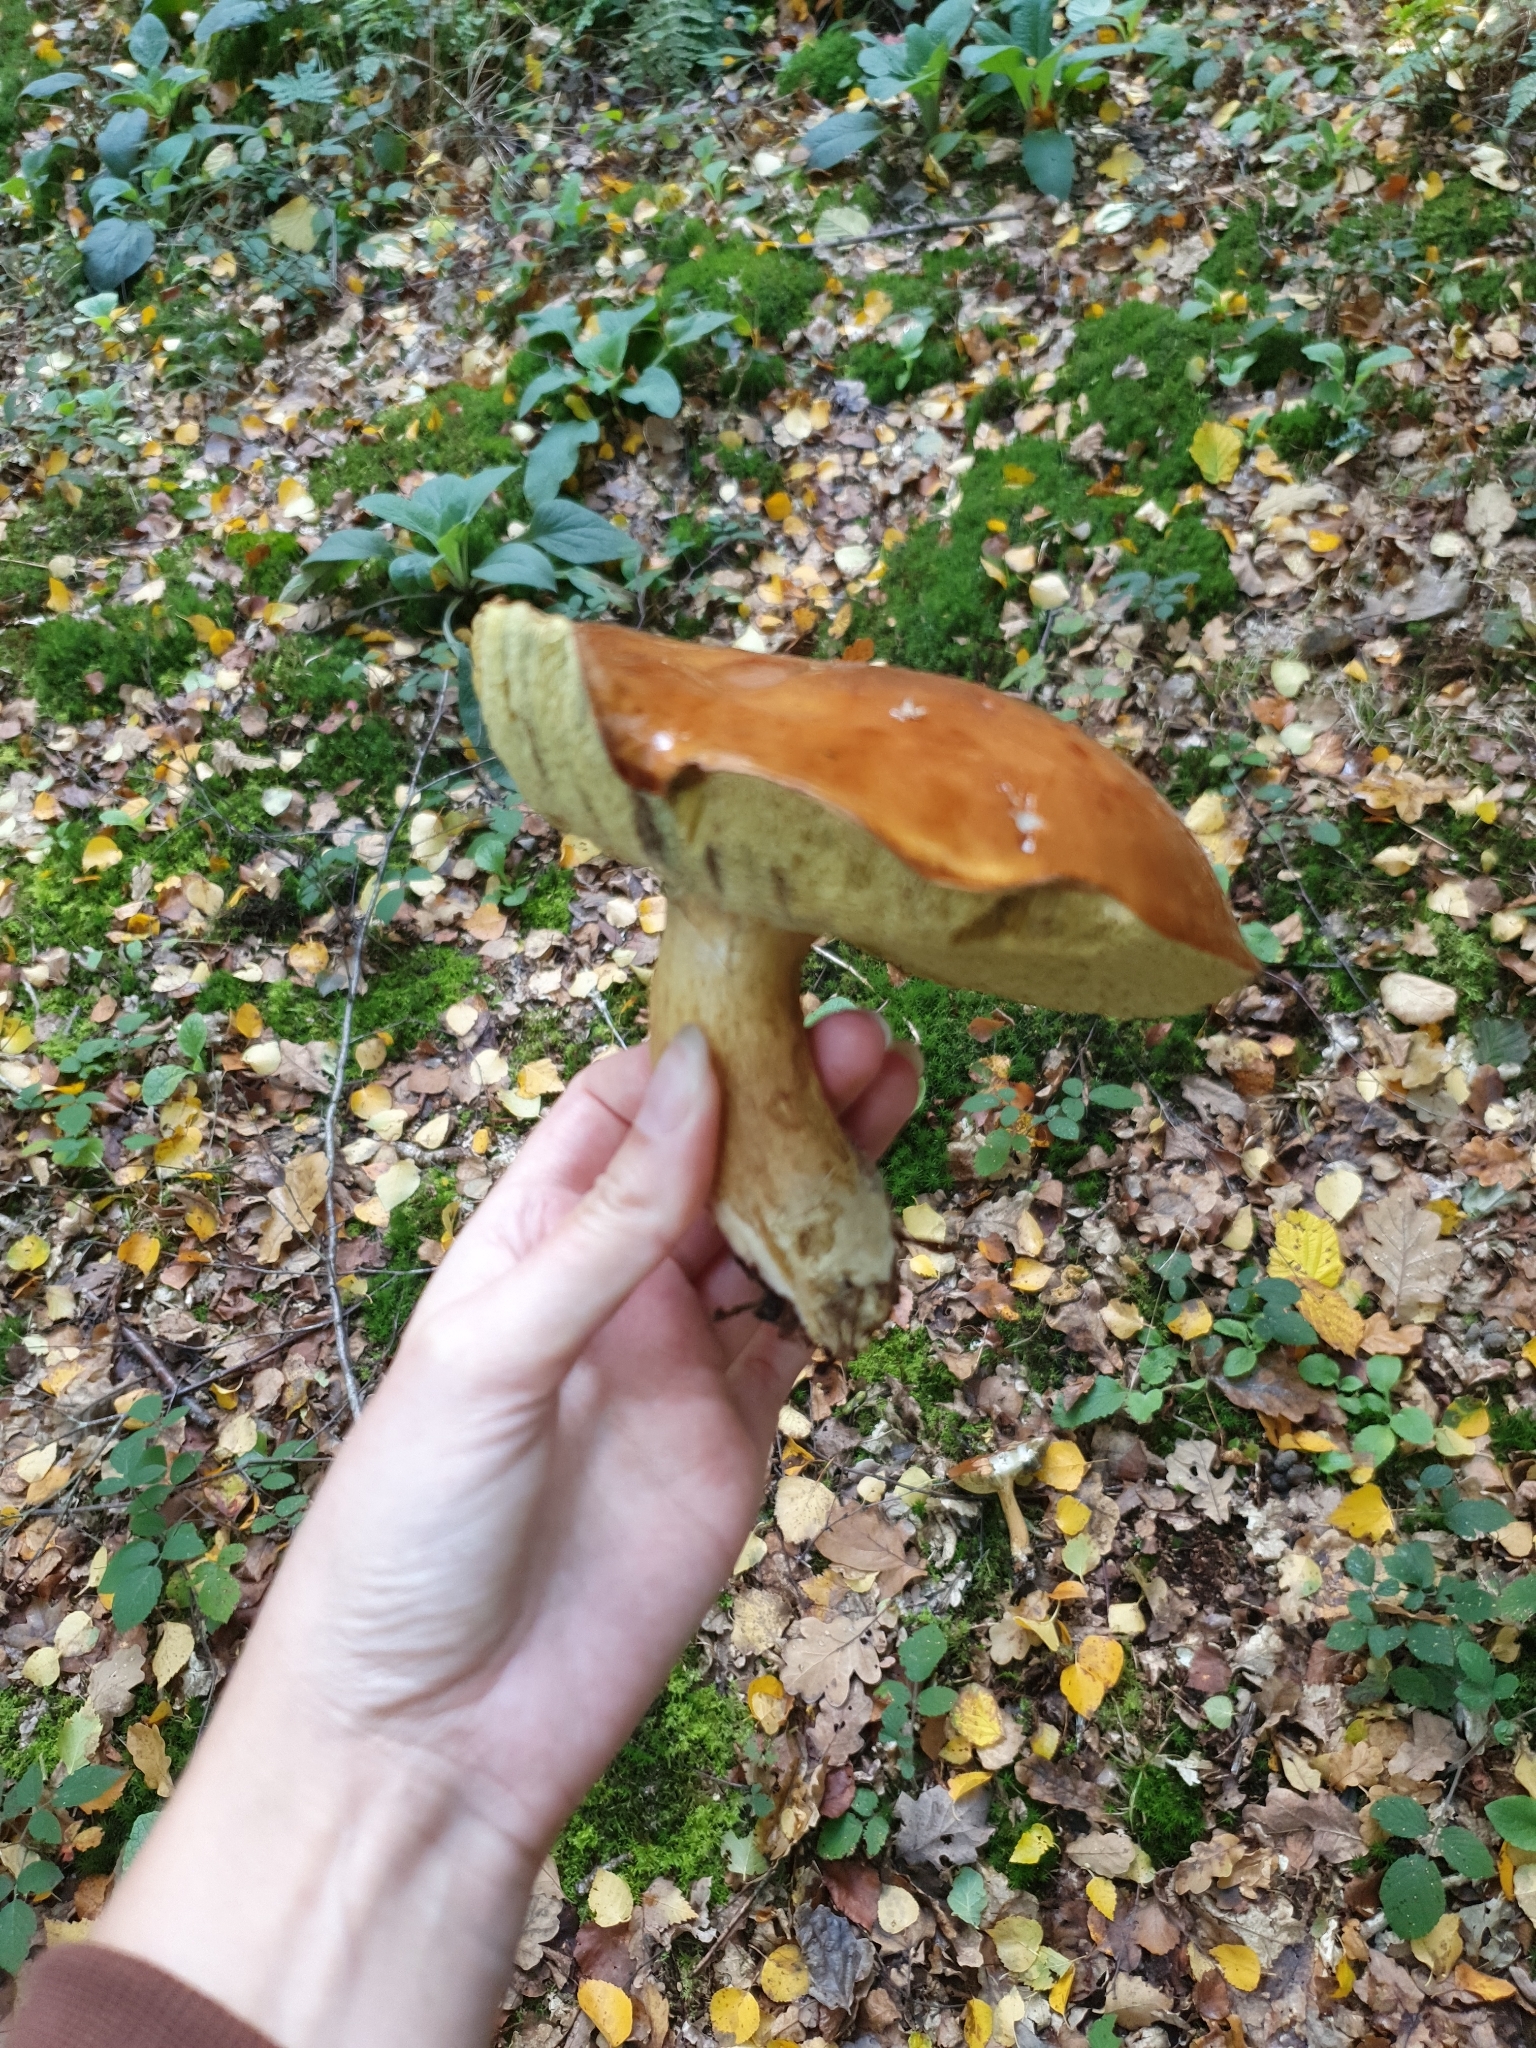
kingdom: Fungi
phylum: Basidiomycota
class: Agaricomycetes
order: Boletales
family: Boletaceae
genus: Imleria
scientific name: Imleria badia
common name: Bay bolete
